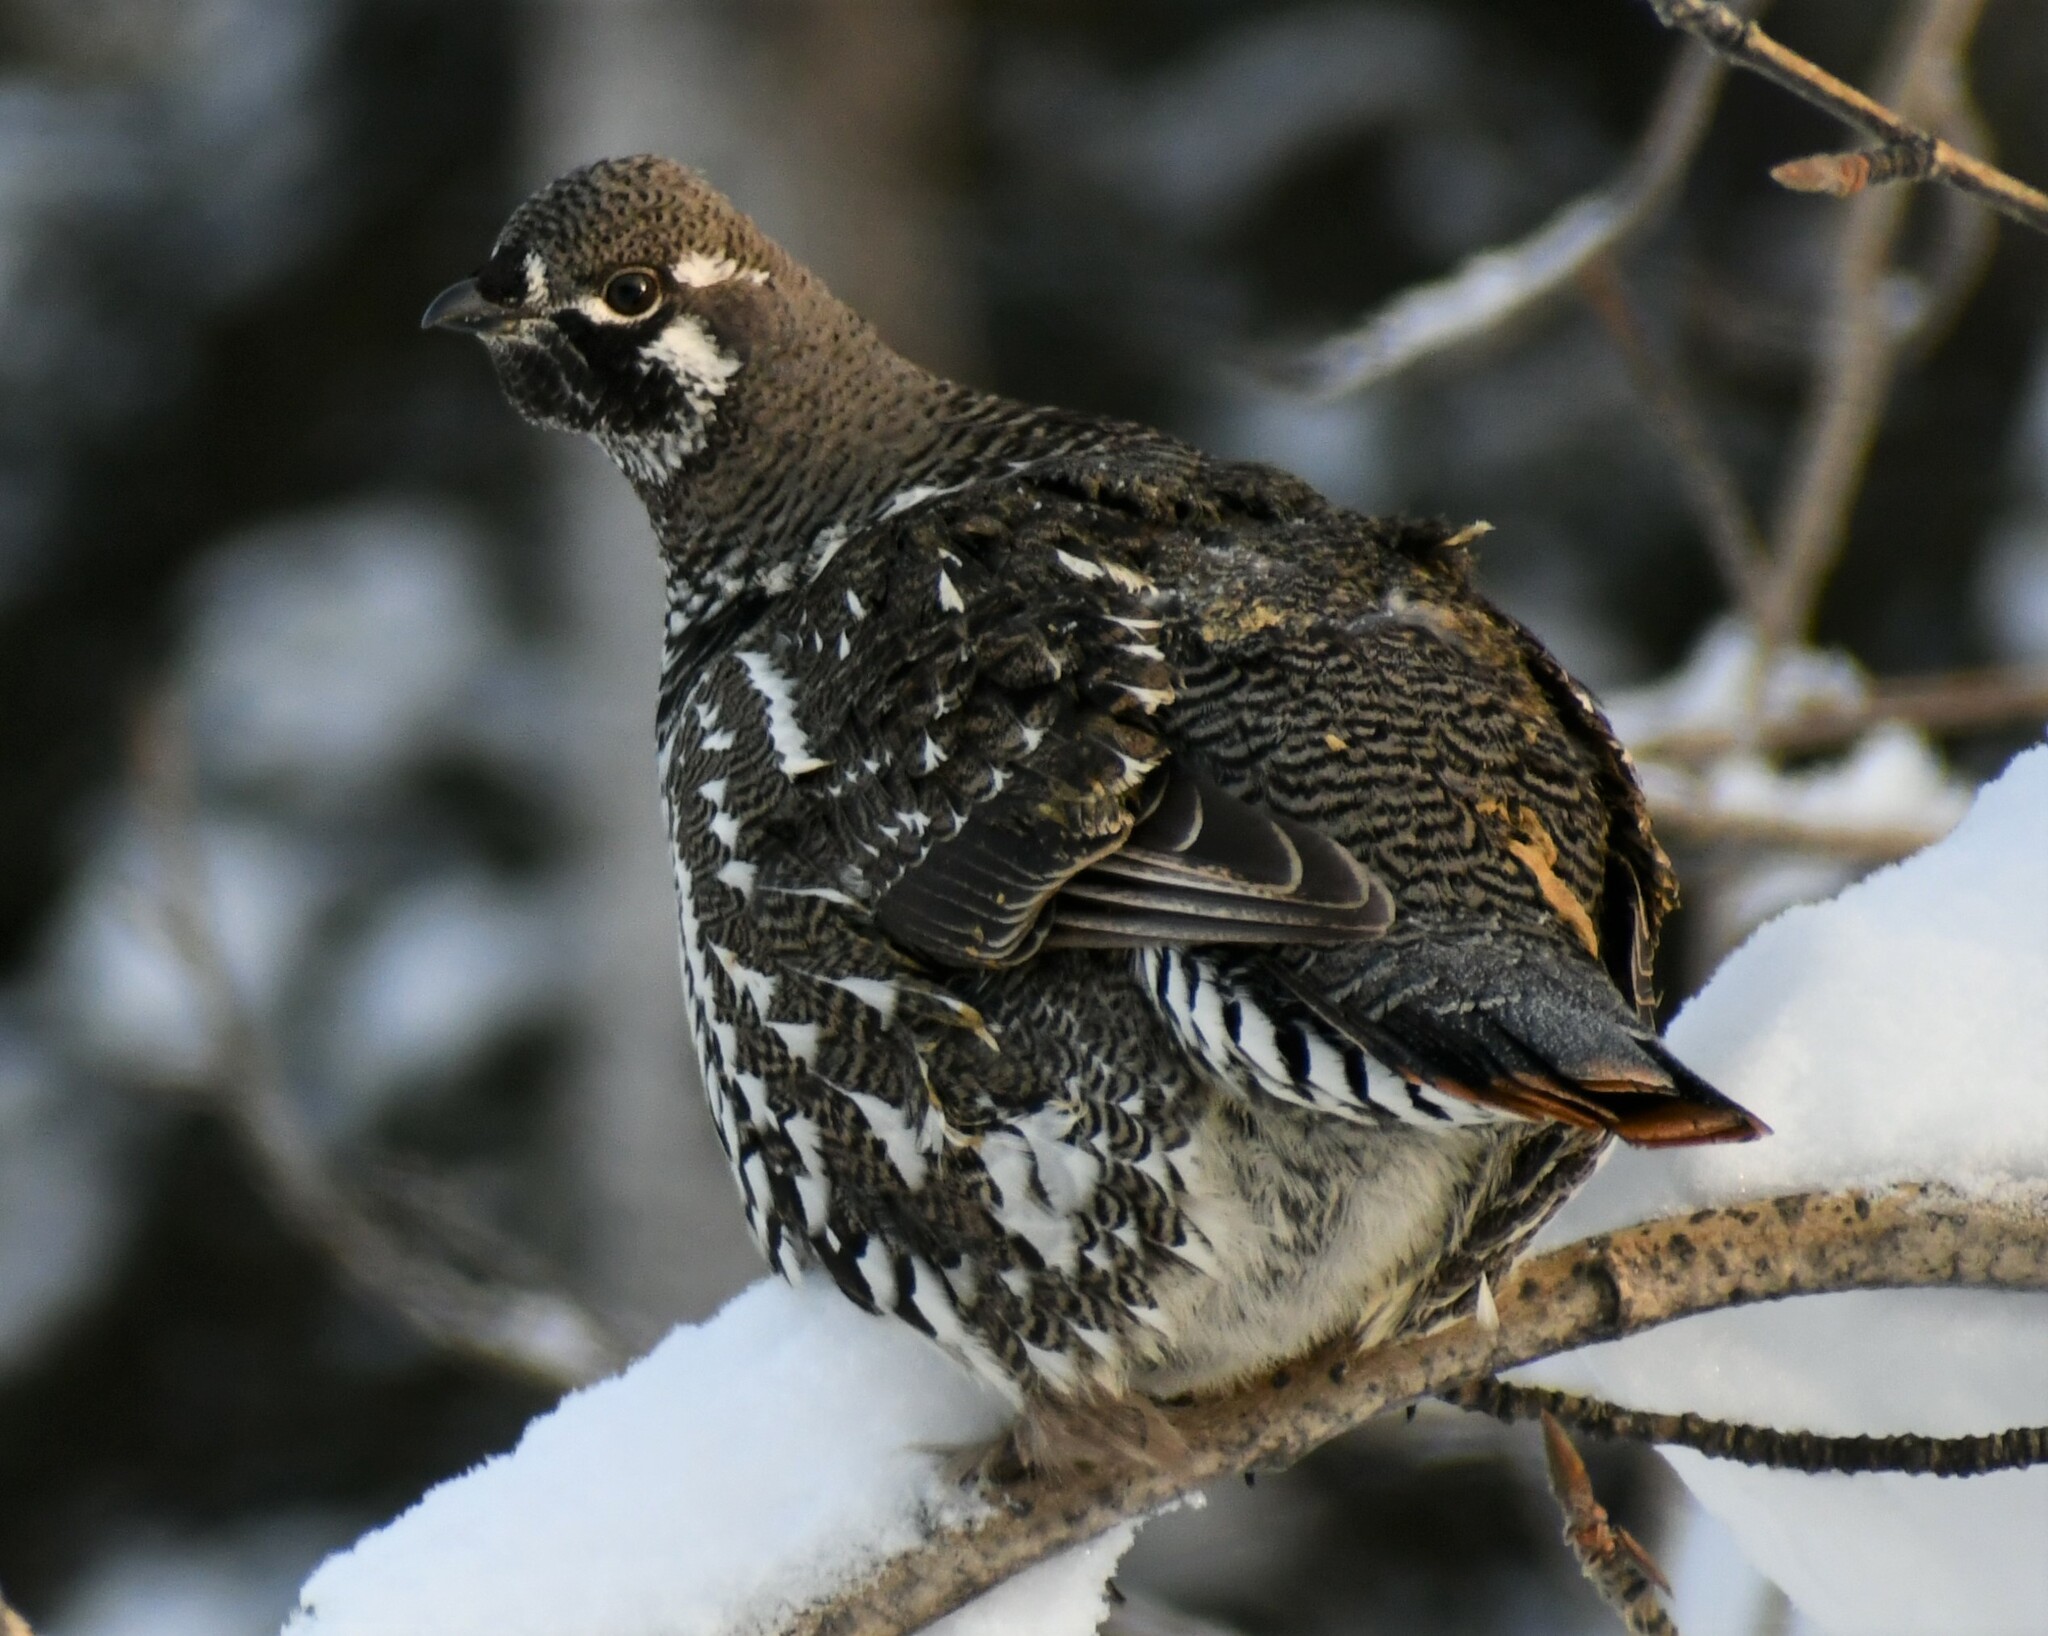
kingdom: Animalia
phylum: Chordata
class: Aves
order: Galliformes
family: Phasianidae
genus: Canachites
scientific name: Canachites canadensis
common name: Spruce grouse
